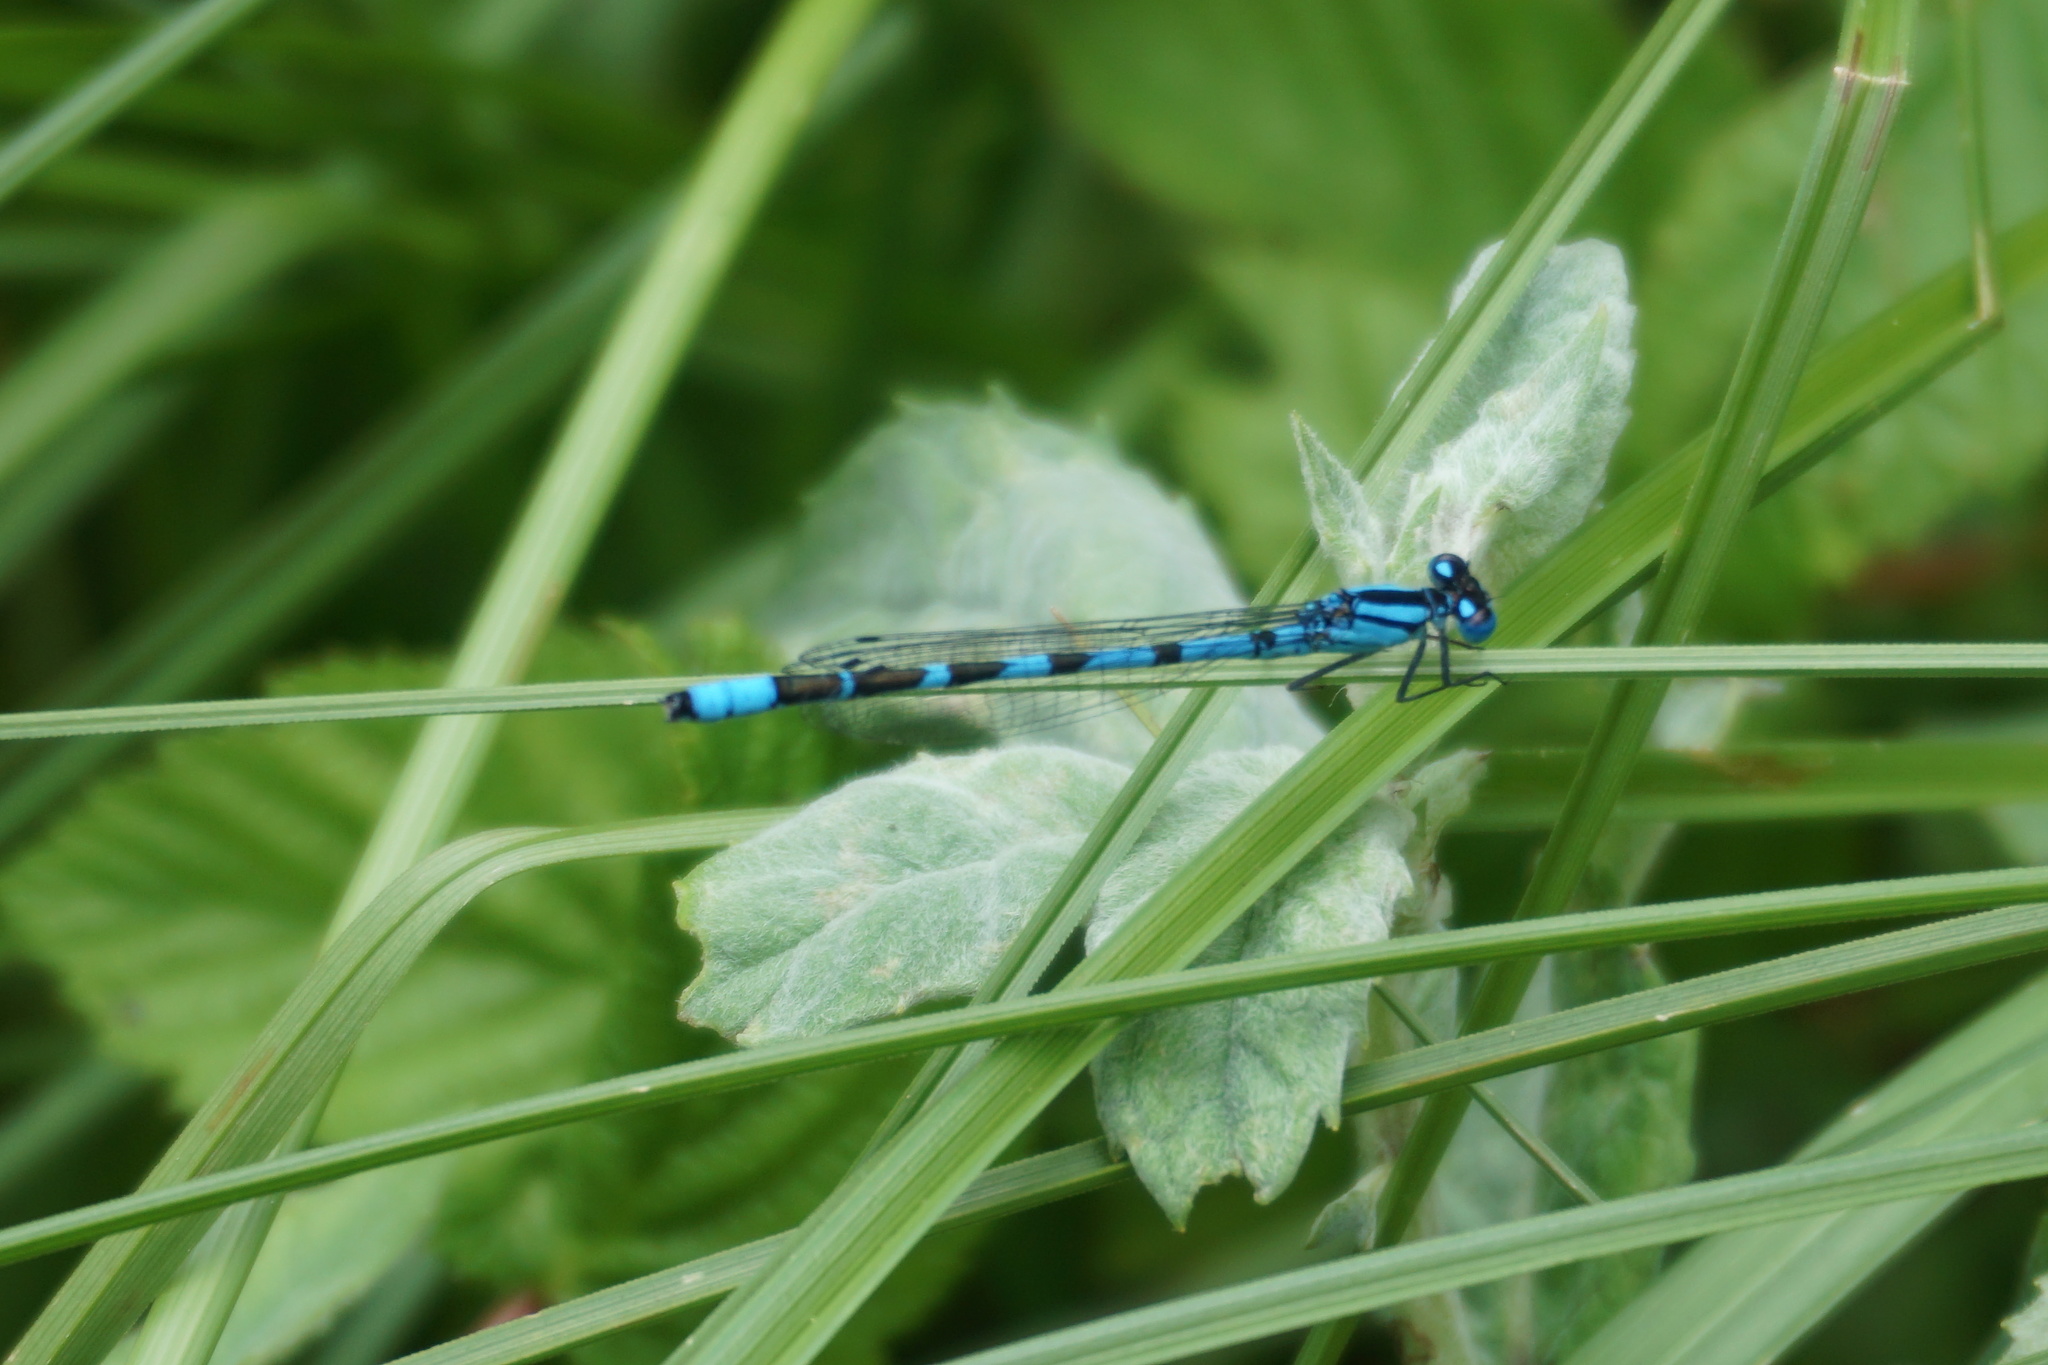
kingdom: Animalia
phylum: Arthropoda
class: Insecta
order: Odonata
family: Coenagrionidae
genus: Enallagma
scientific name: Enallagma cyathigerum
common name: Common blue damselfly
